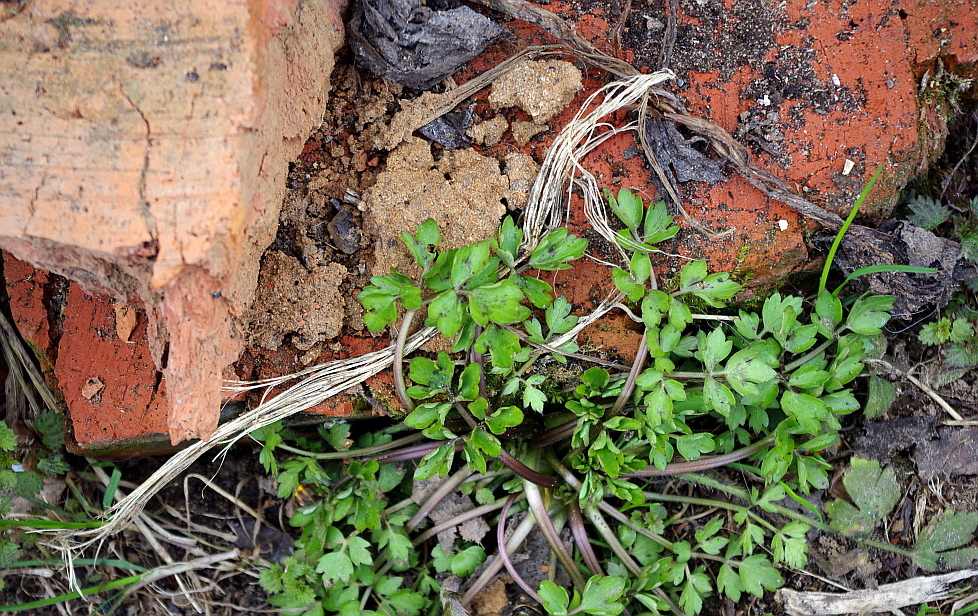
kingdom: Plantae
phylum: Tracheophyta
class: Magnoliopsida
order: Ranunculales
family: Ranunculaceae
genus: Ranunculus
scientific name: Ranunculus repens
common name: Creeping buttercup
